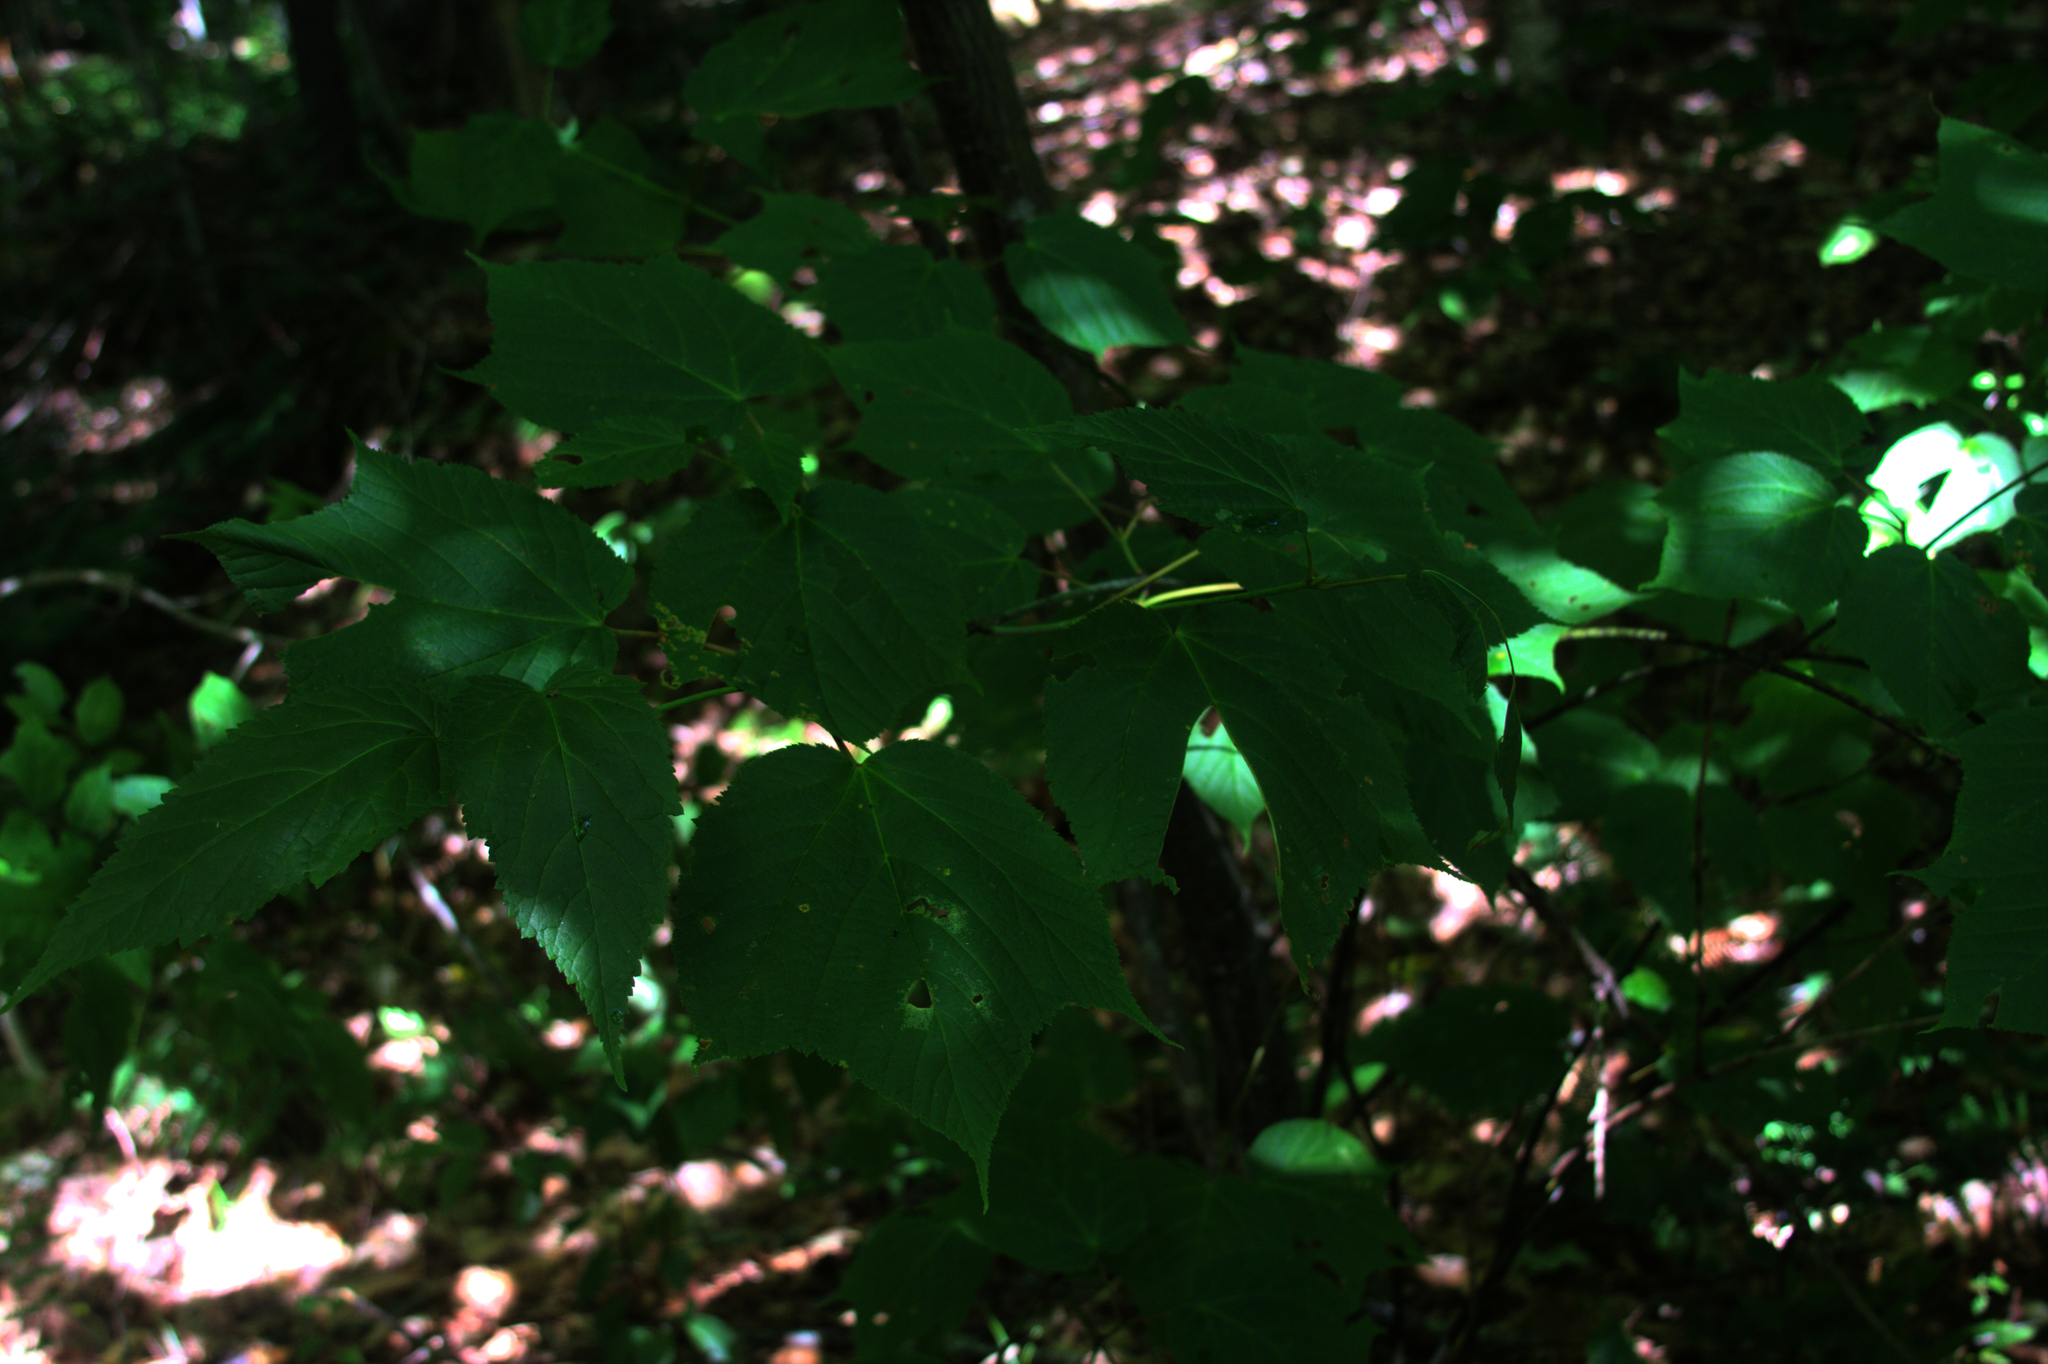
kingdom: Plantae
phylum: Tracheophyta
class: Magnoliopsida
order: Sapindales
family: Sapindaceae
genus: Acer
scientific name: Acer pensylvanicum
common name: Moosewood
